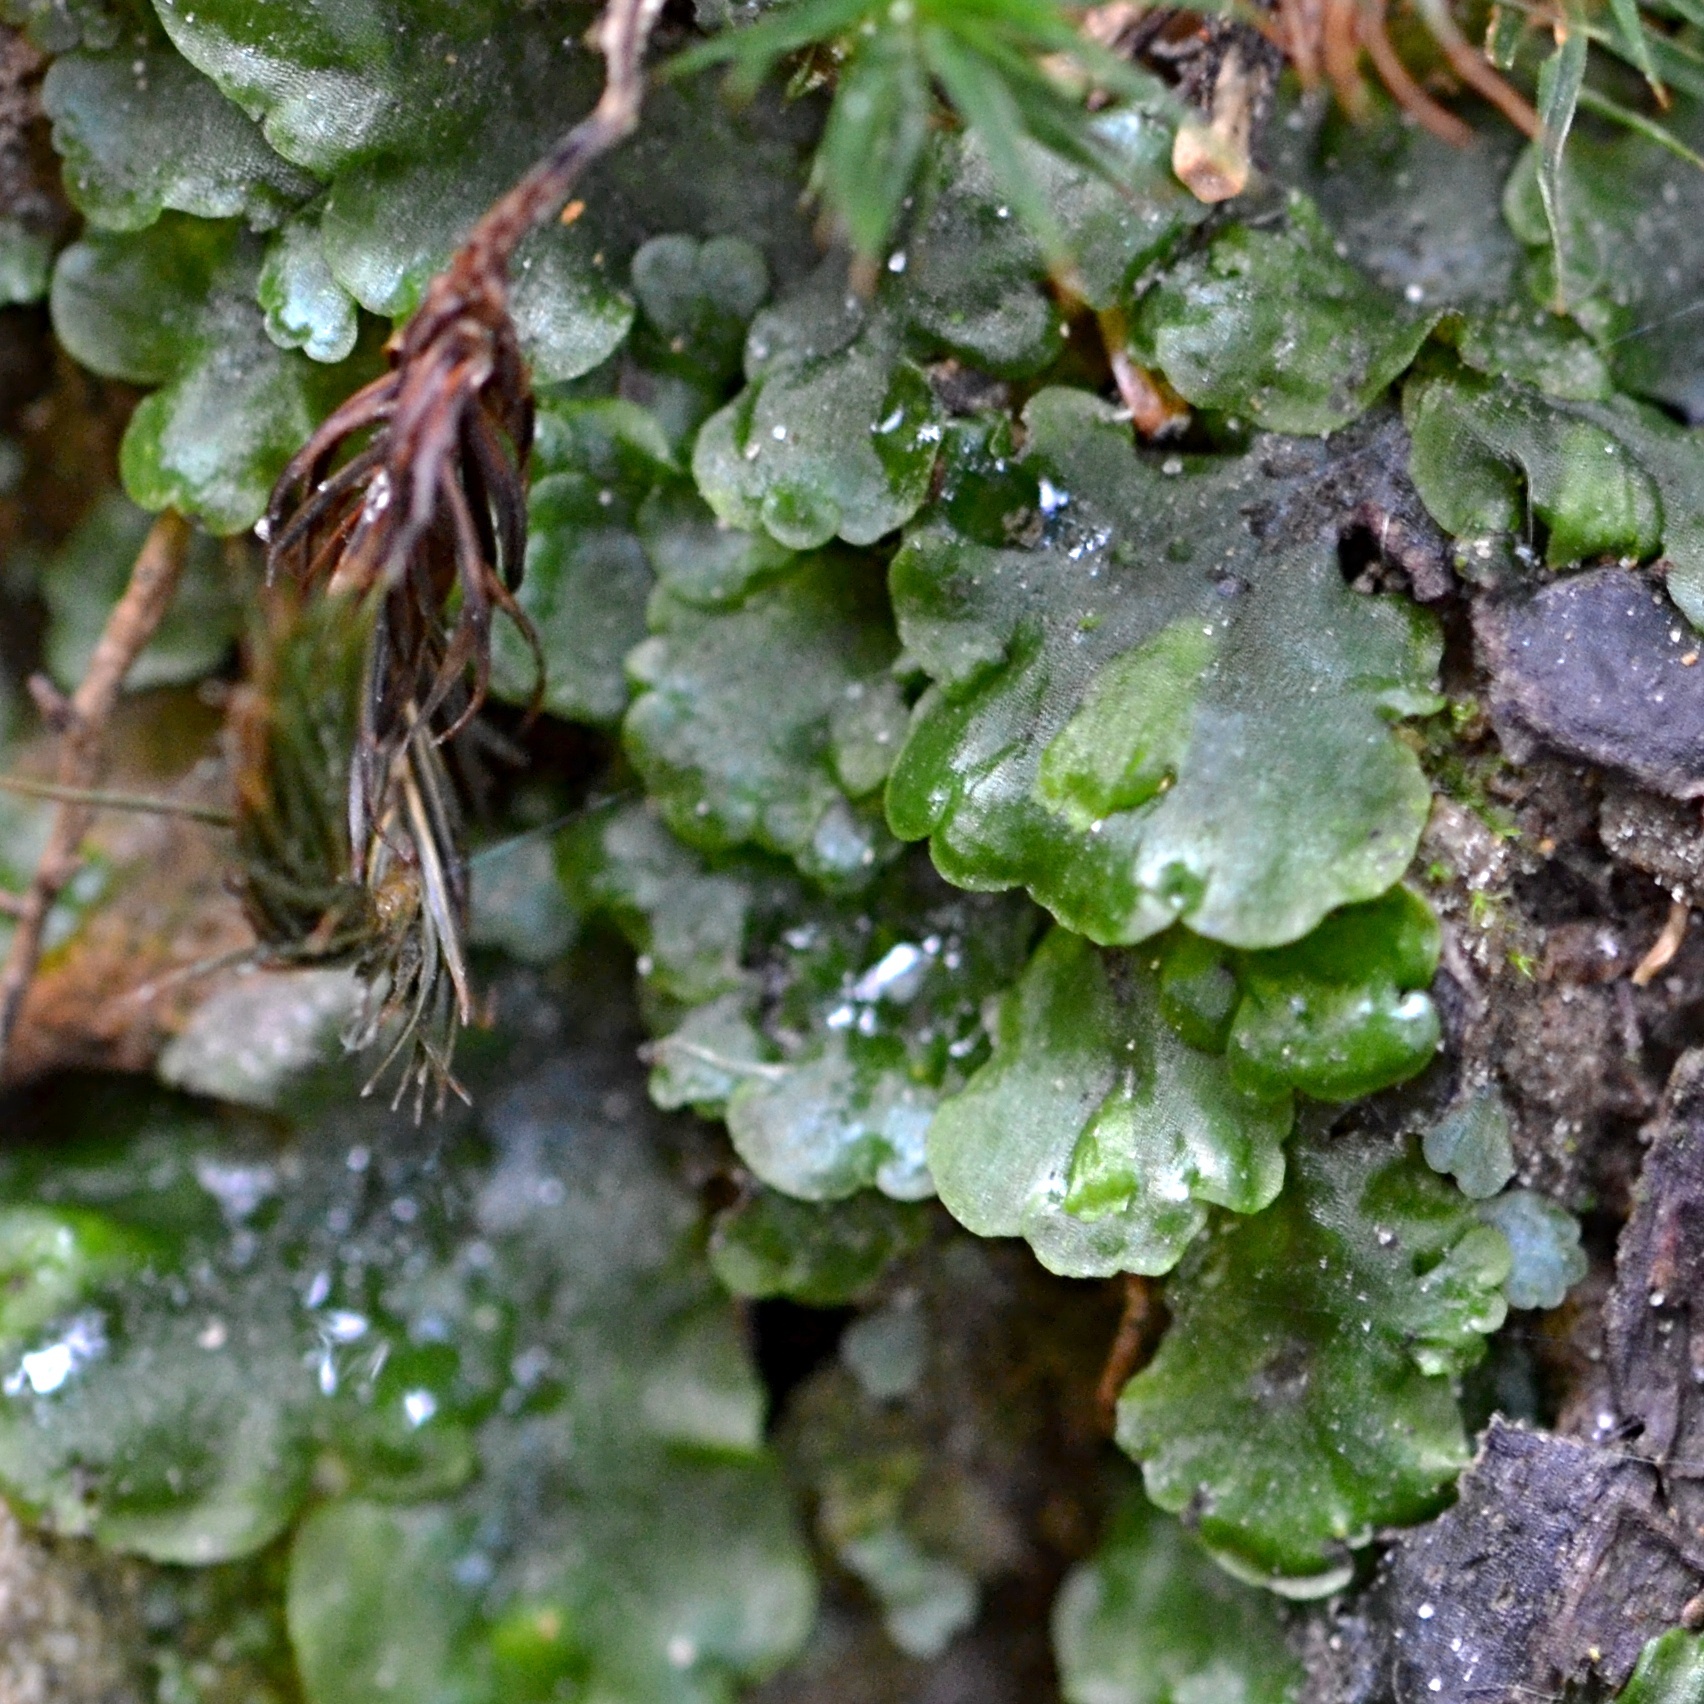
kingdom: Plantae
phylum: Marchantiophyta
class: Jungermanniopsida
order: Pelliales
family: Pelliaceae
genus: Pellia
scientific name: Pellia epiphylla
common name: Common pellia
